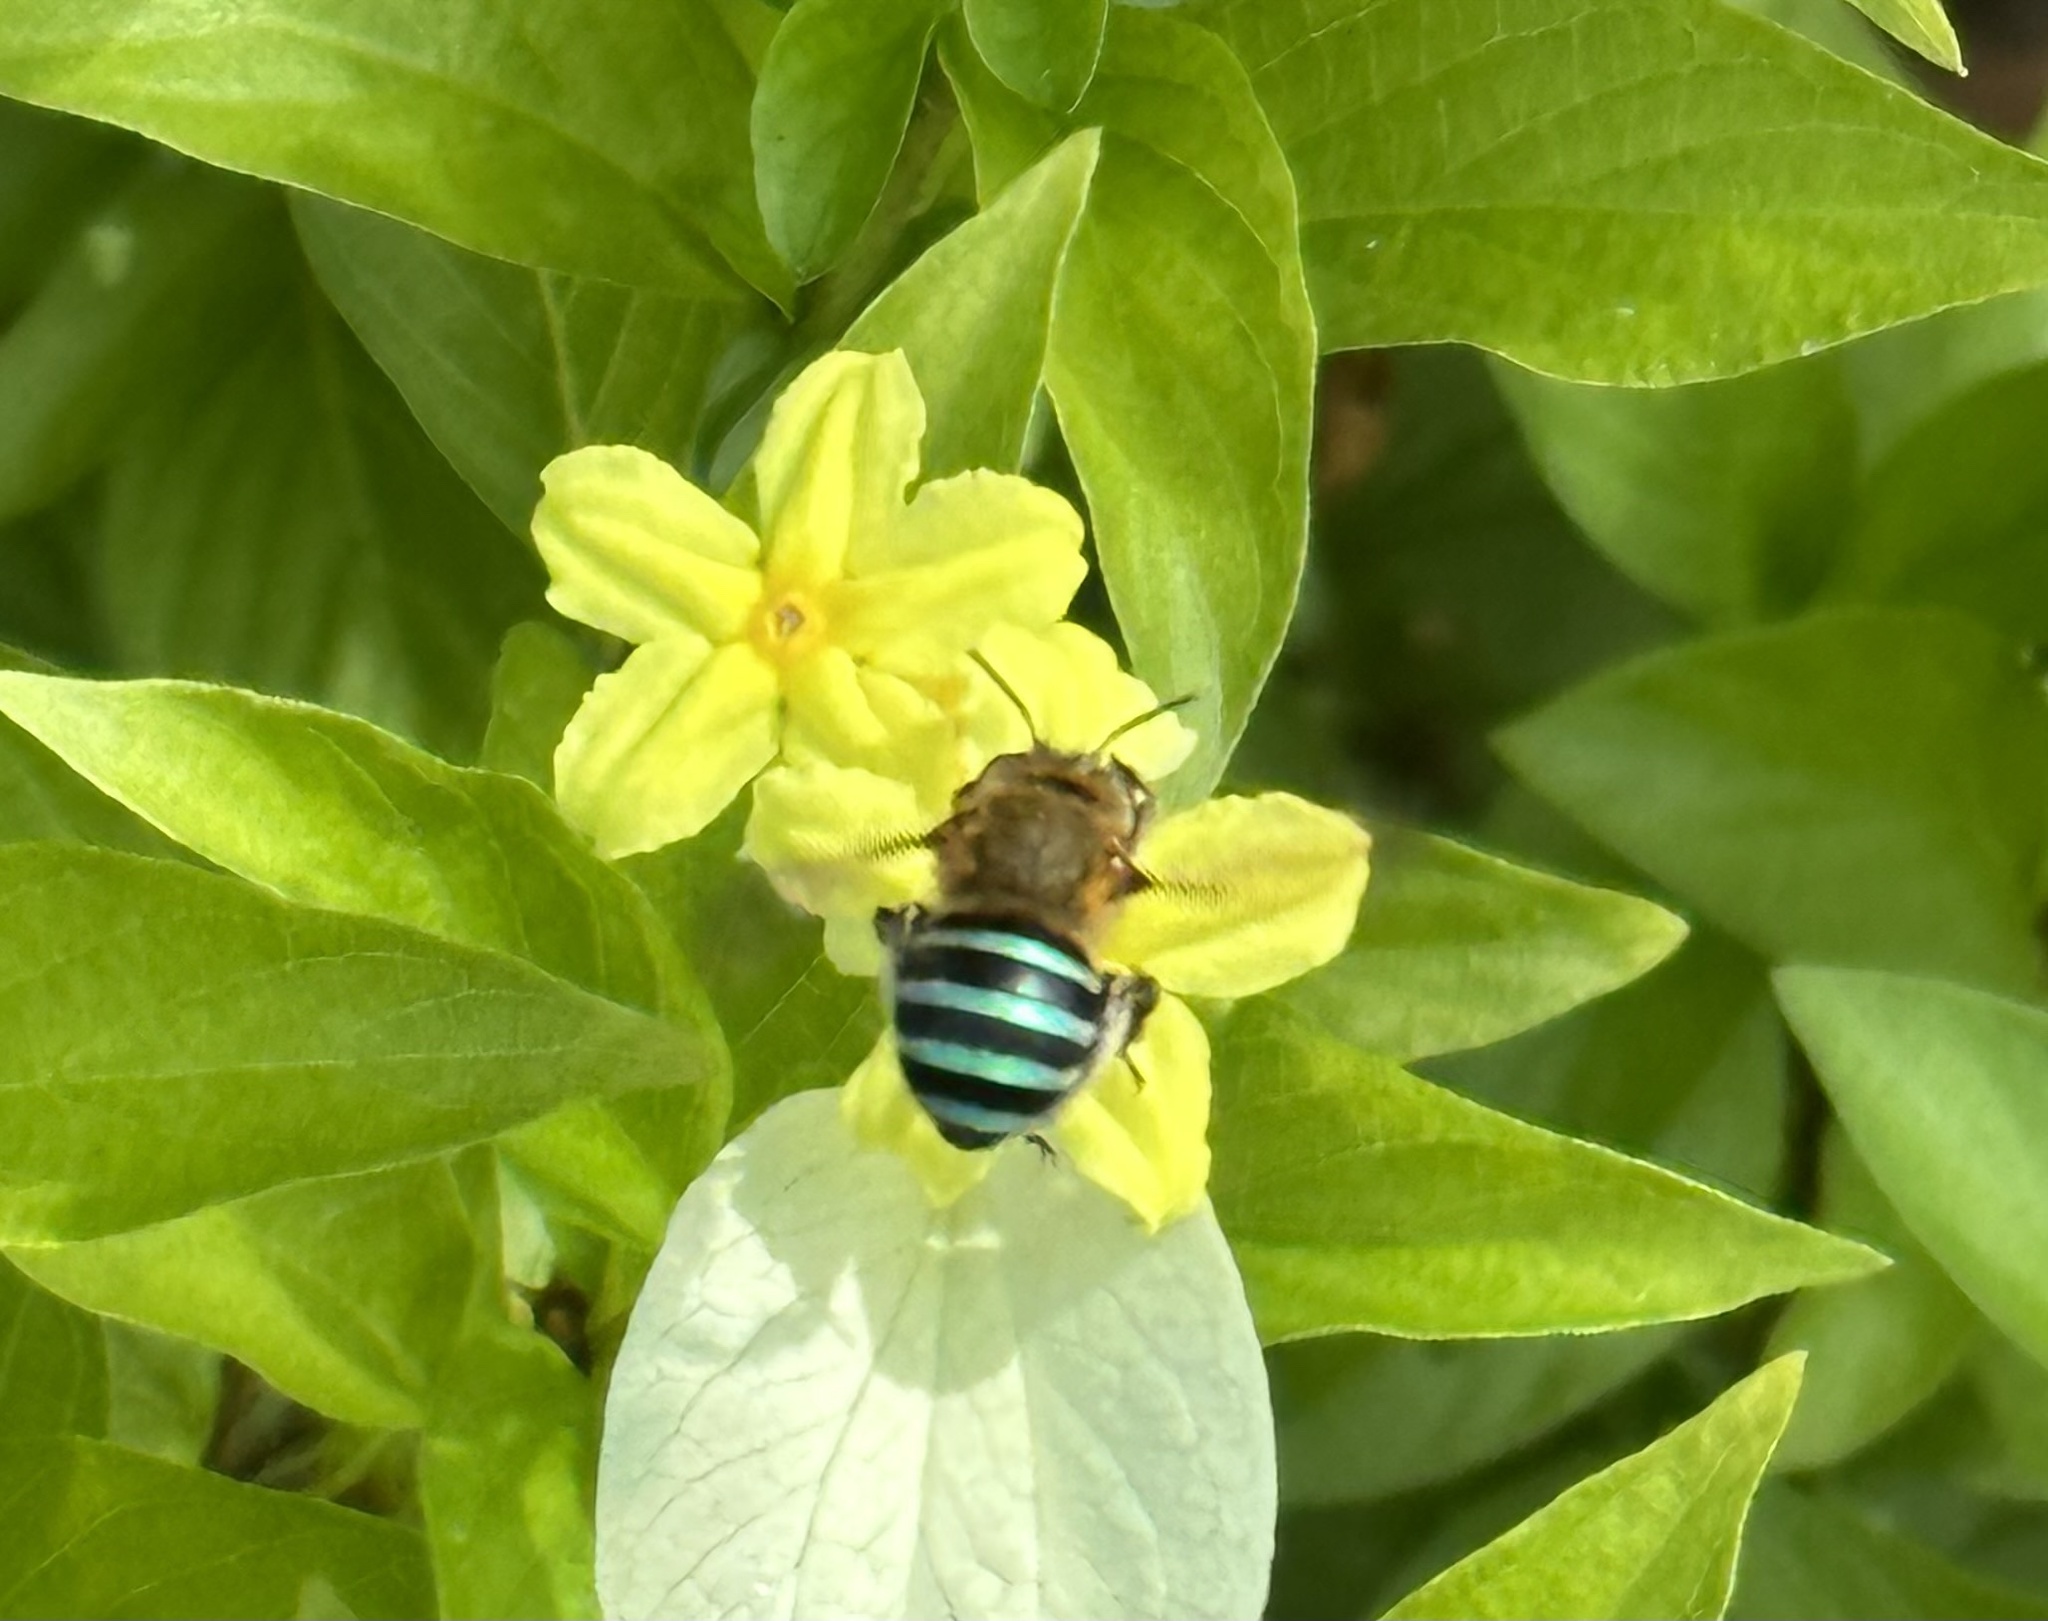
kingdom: Animalia
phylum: Arthropoda
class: Insecta
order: Hymenoptera
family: Apidae
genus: Amegilla
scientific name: Amegilla andrewsi
